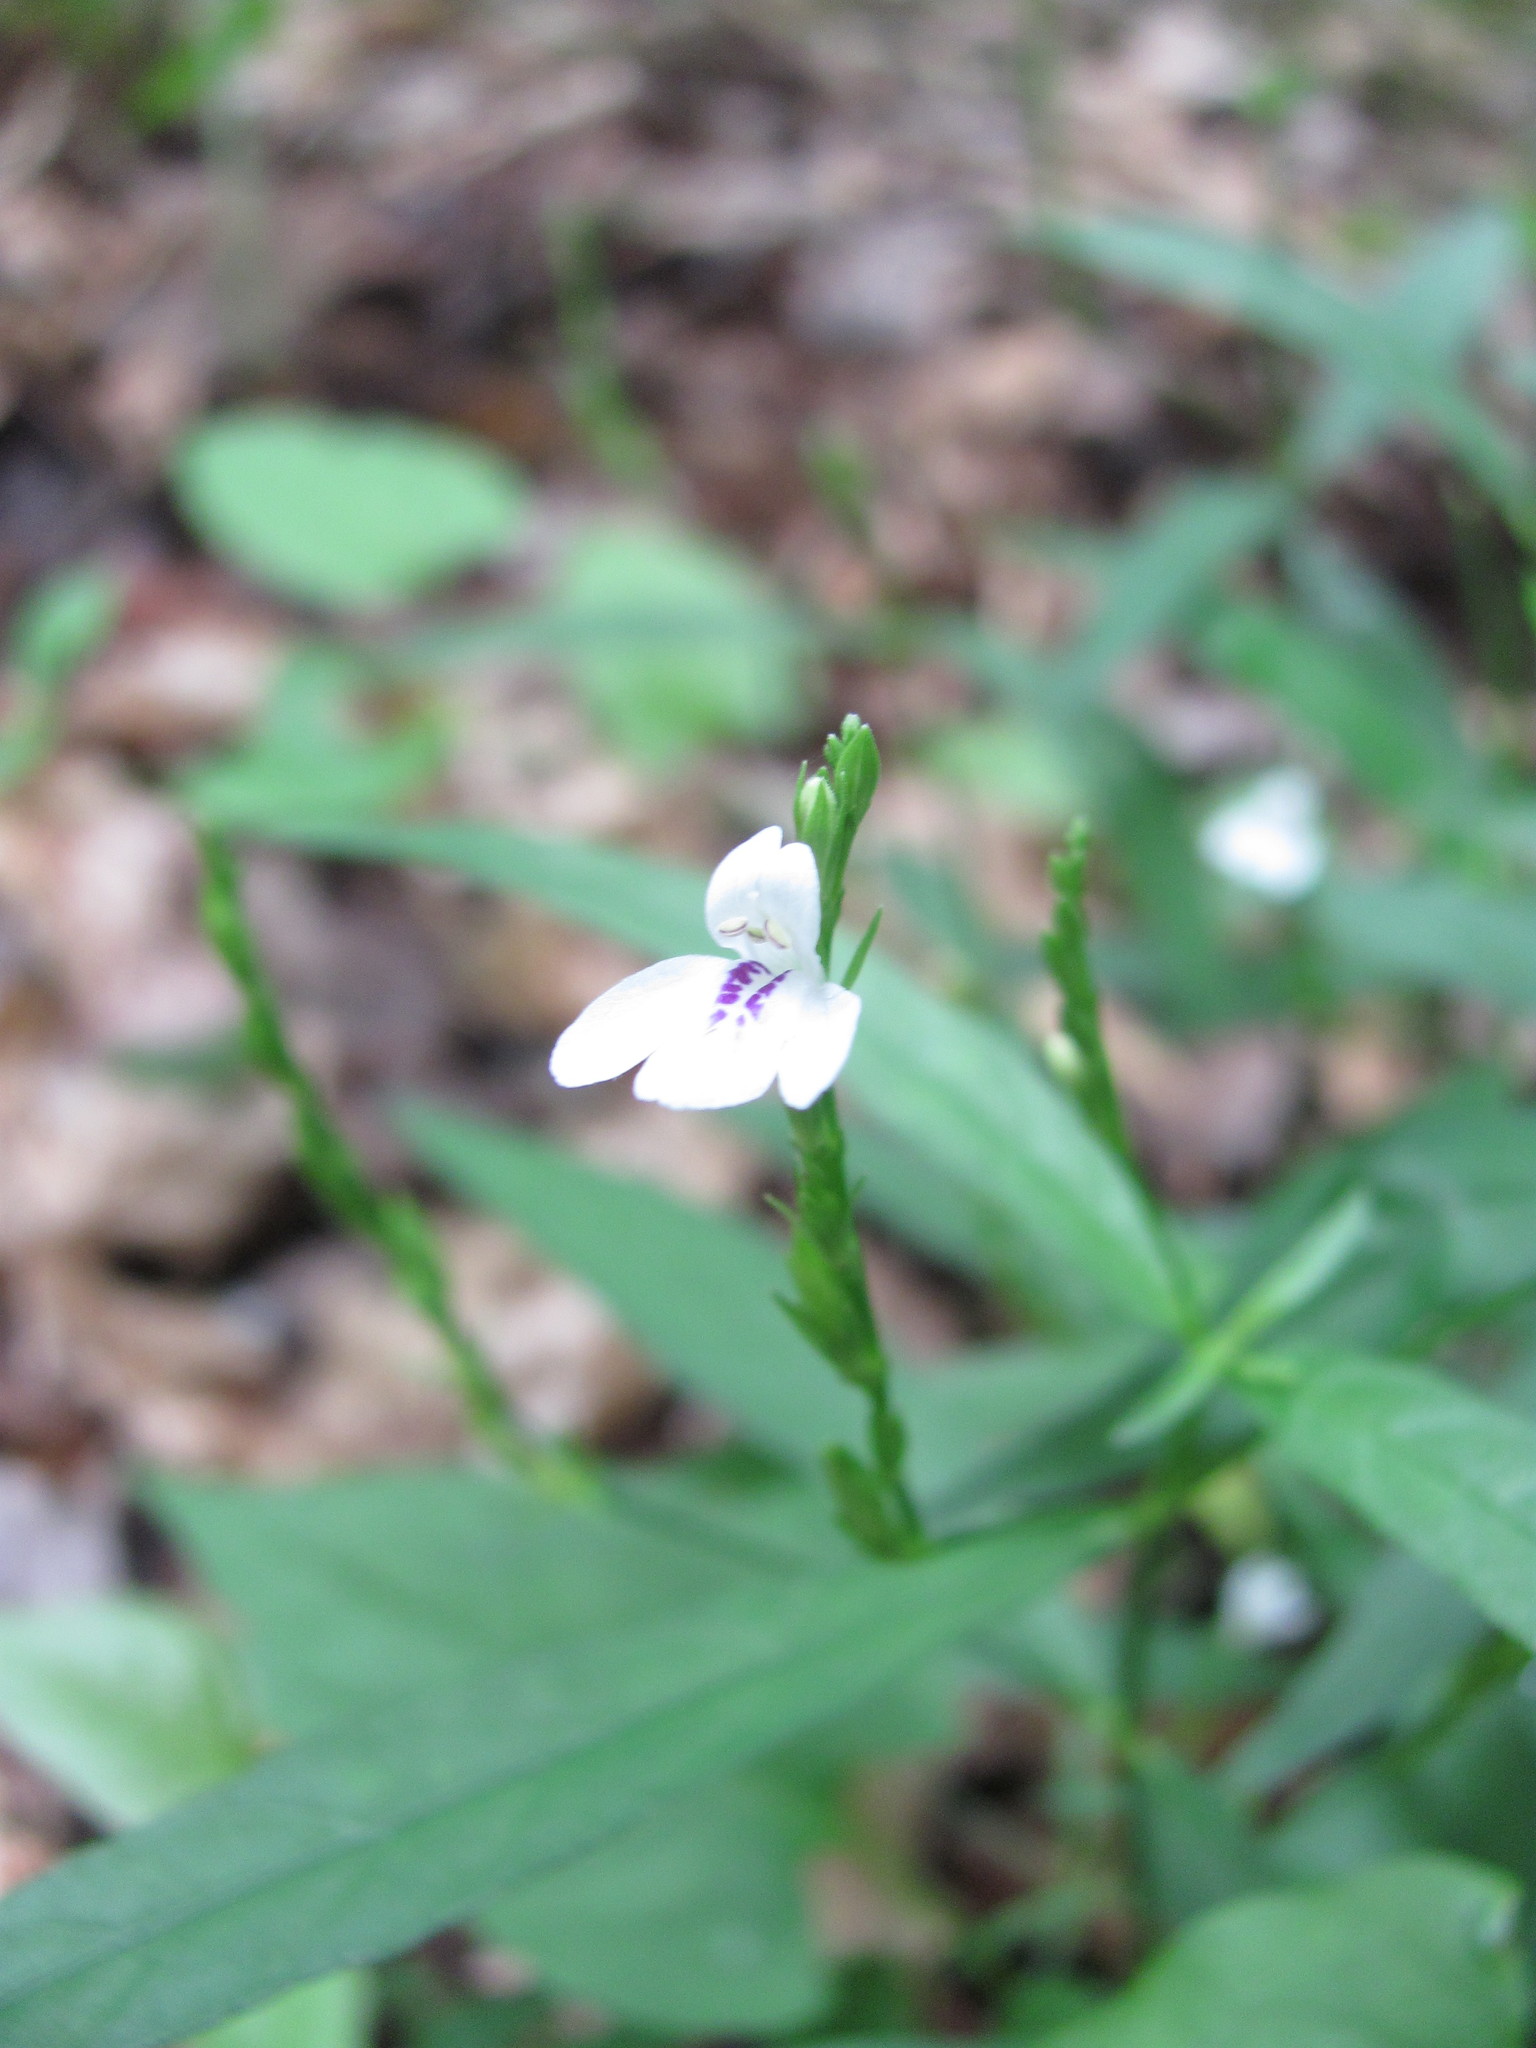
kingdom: Plantae
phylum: Tracheophyta
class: Magnoliopsida
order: Lamiales
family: Acanthaceae
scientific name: Acanthaceae
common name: Acanthaceae
